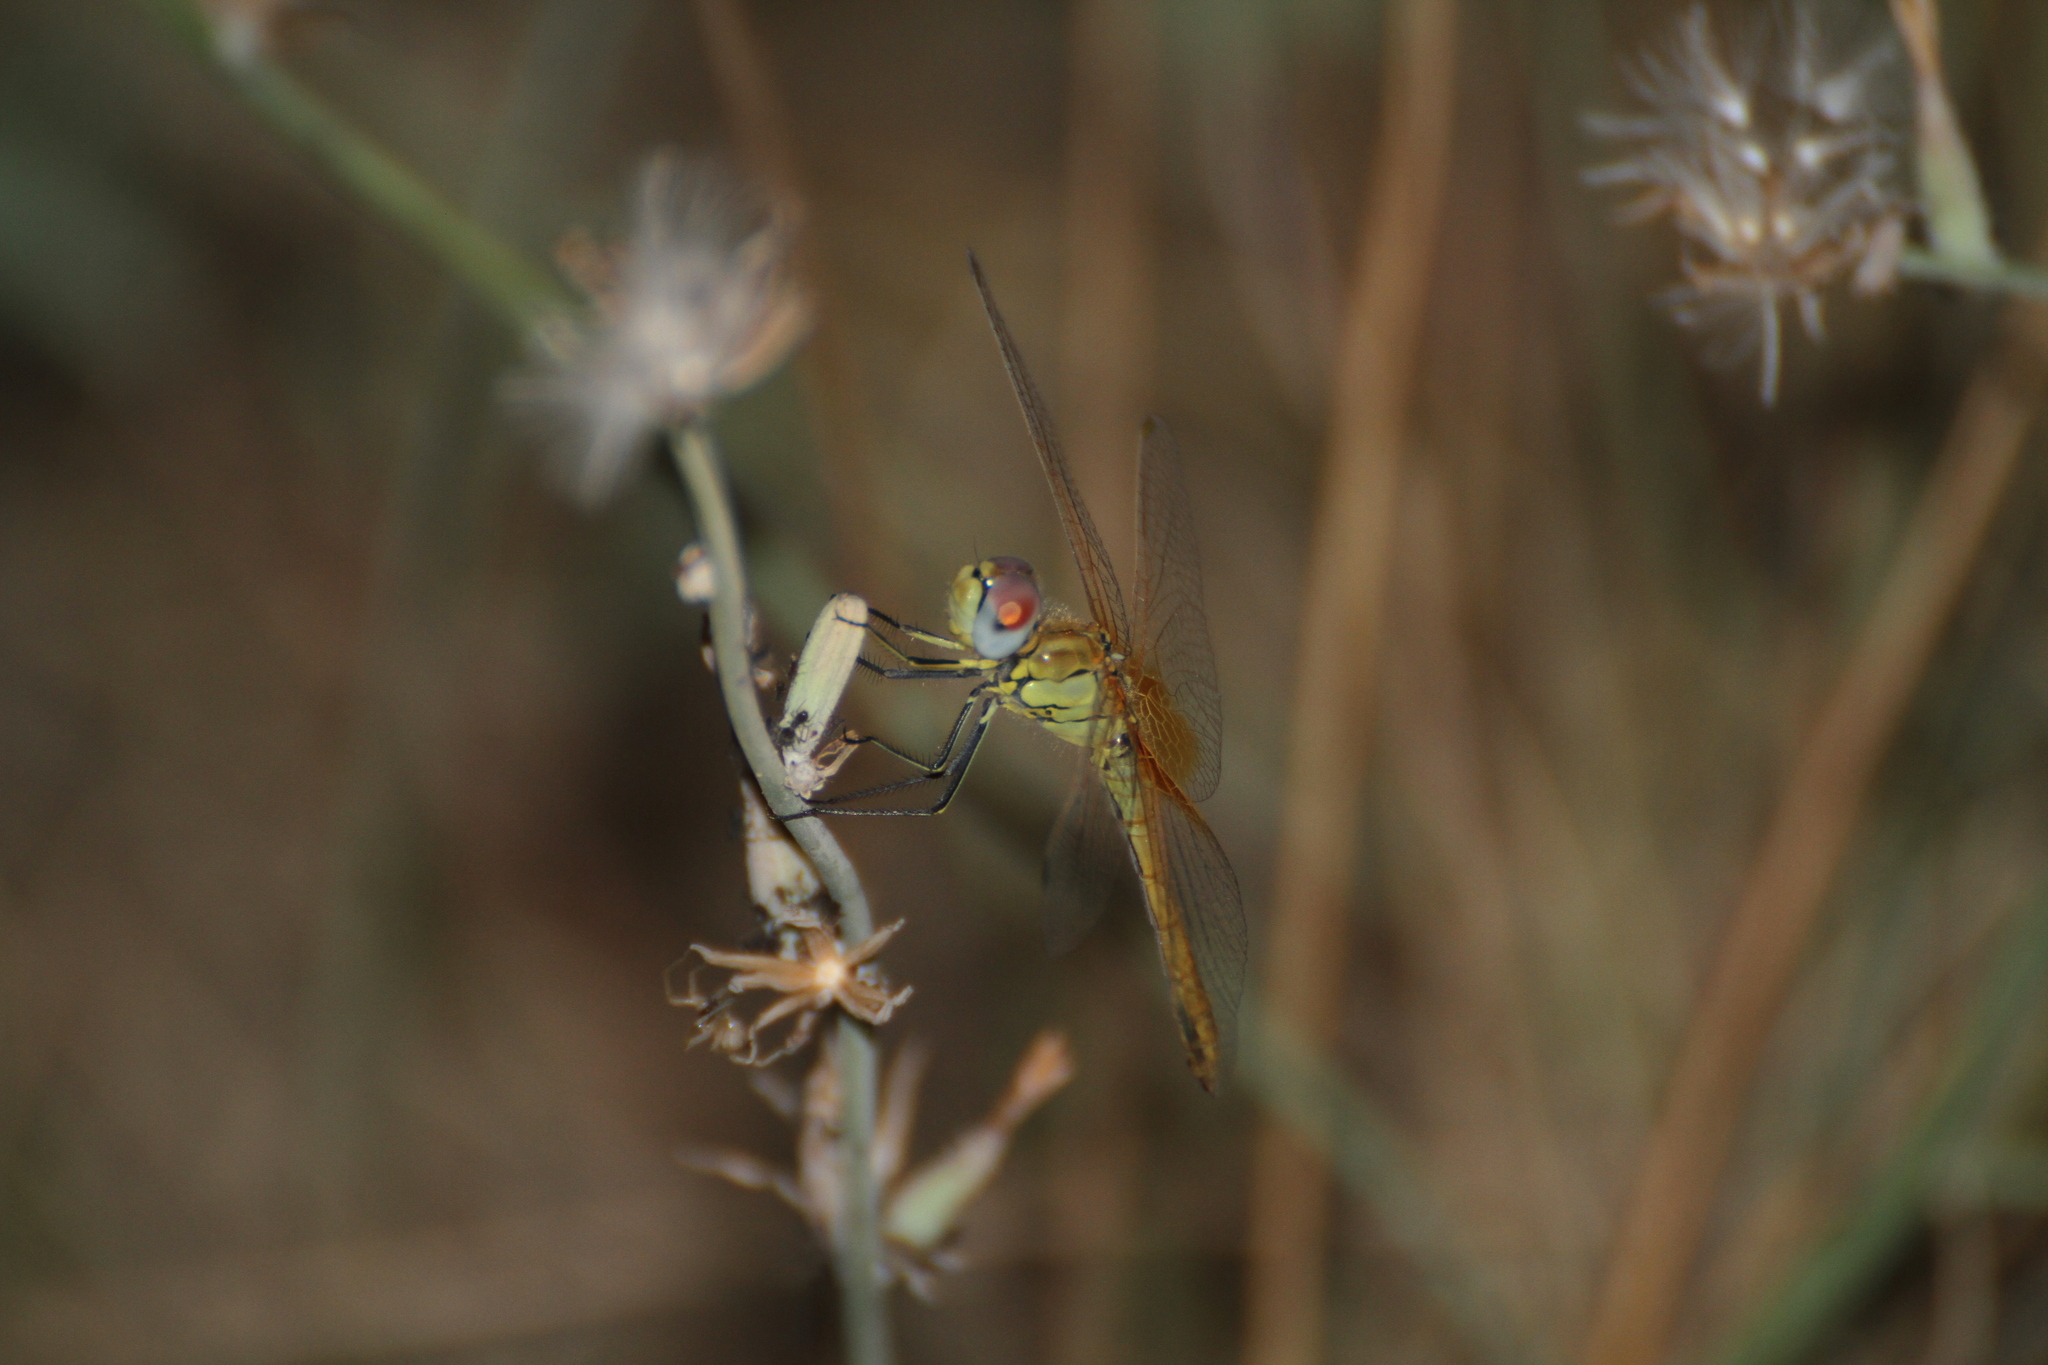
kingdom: Animalia
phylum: Arthropoda
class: Insecta
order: Odonata
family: Libellulidae
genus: Sympetrum
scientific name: Sympetrum fonscolombii
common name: Red-veined darter
